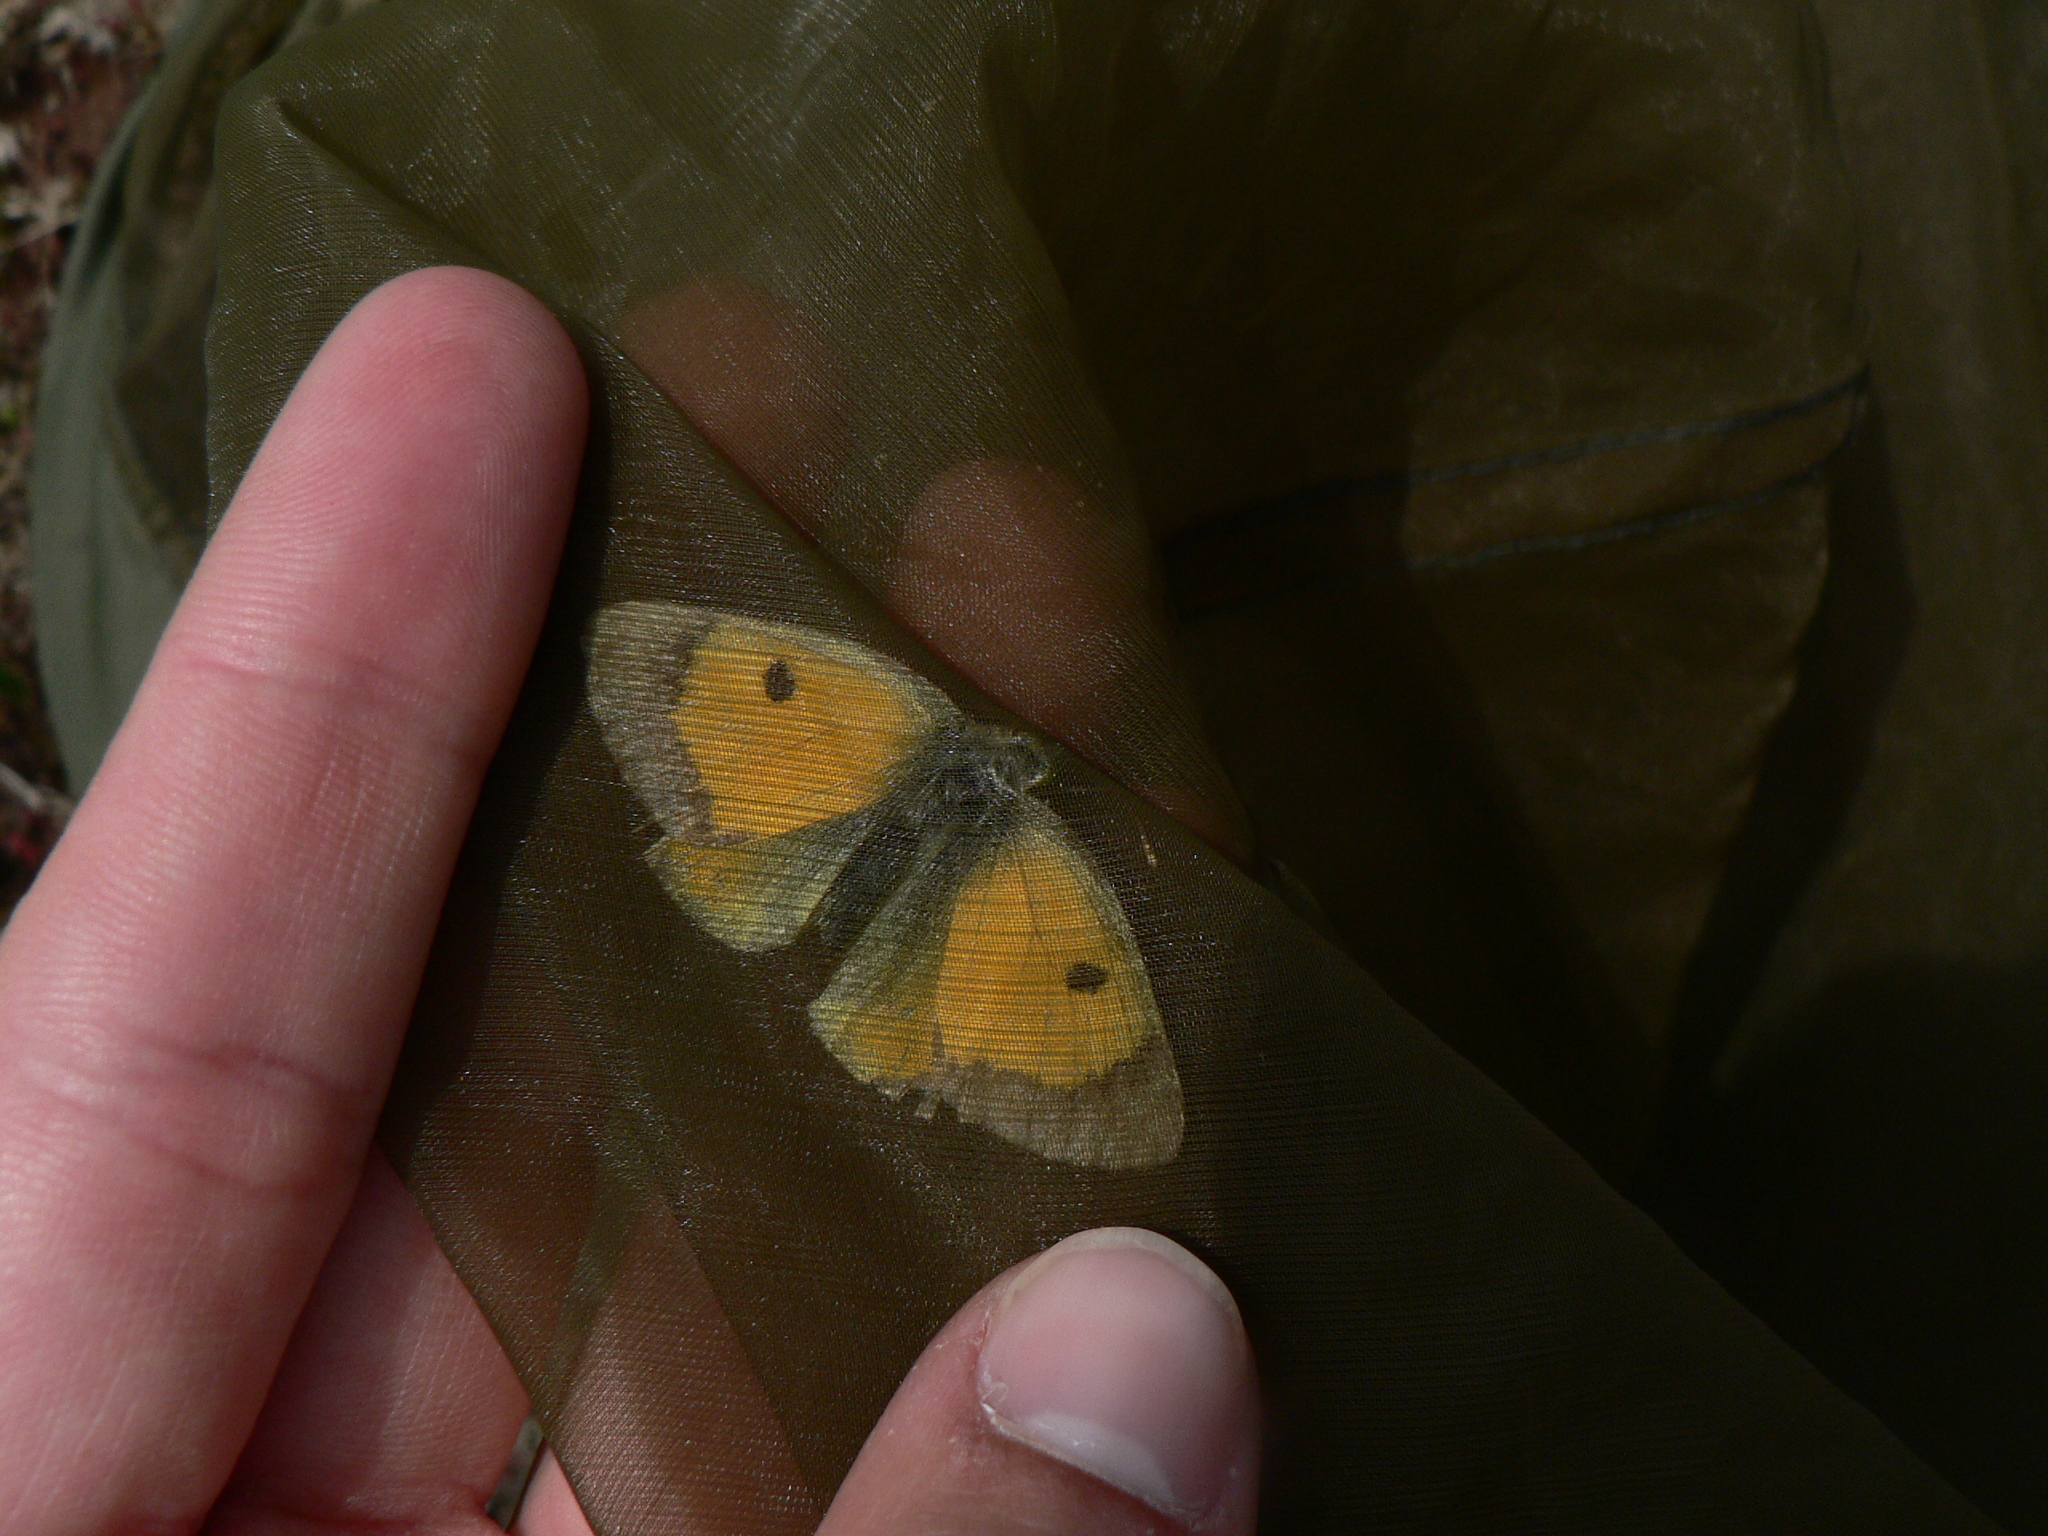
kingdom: Animalia
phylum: Arthropoda
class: Insecta
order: Lepidoptera
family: Pieridae
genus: Colias
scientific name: Colias croceus
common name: Clouded yellow
